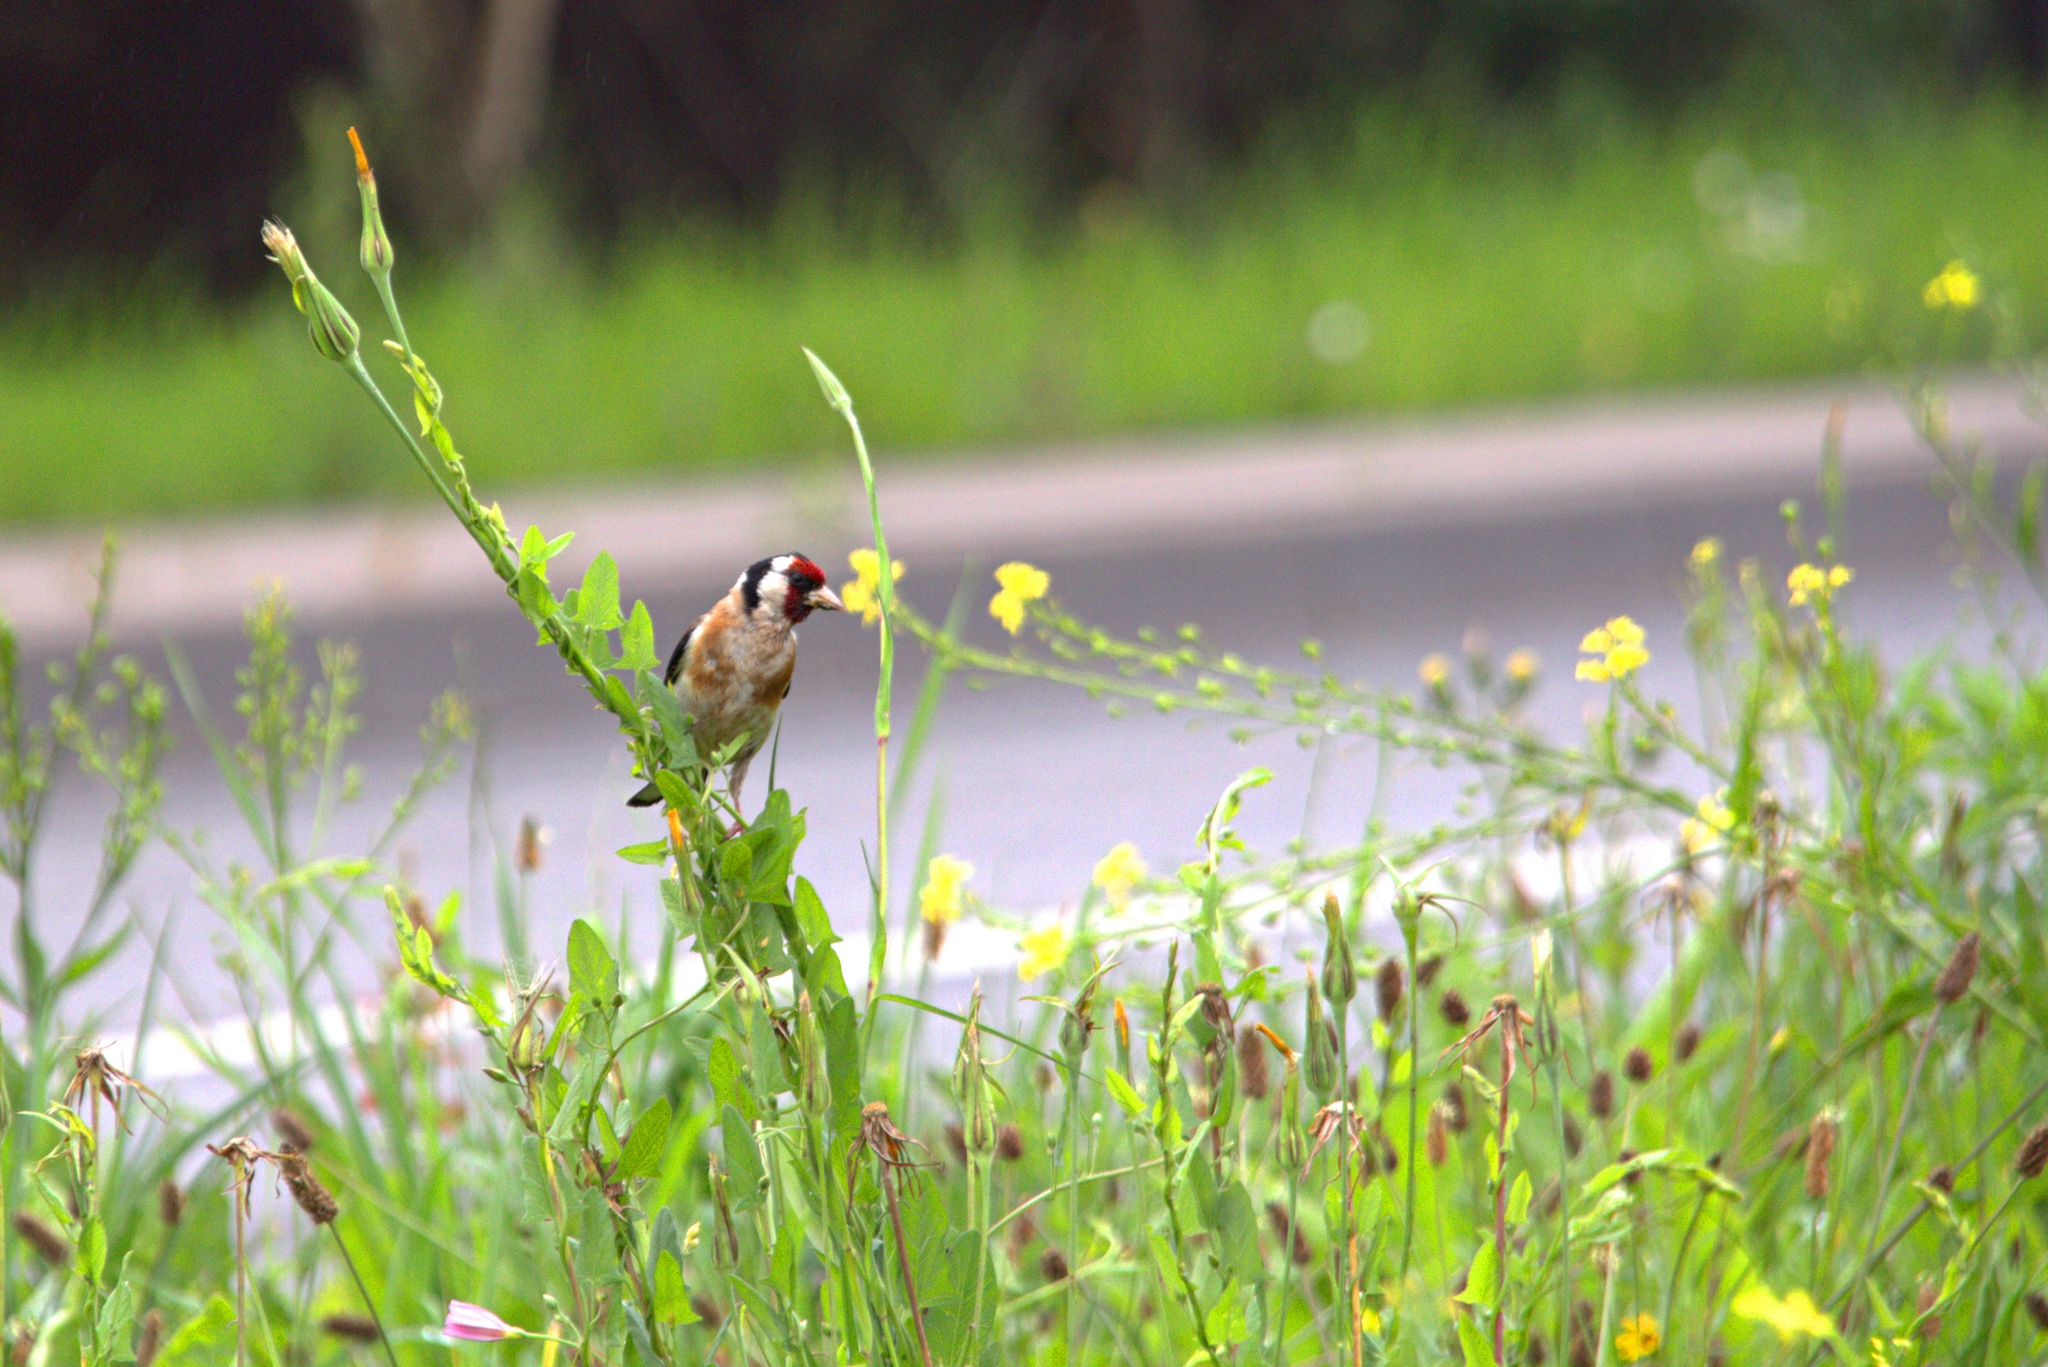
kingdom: Animalia
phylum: Chordata
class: Aves
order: Passeriformes
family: Fringillidae
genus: Carduelis
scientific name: Carduelis carduelis
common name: European goldfinch
